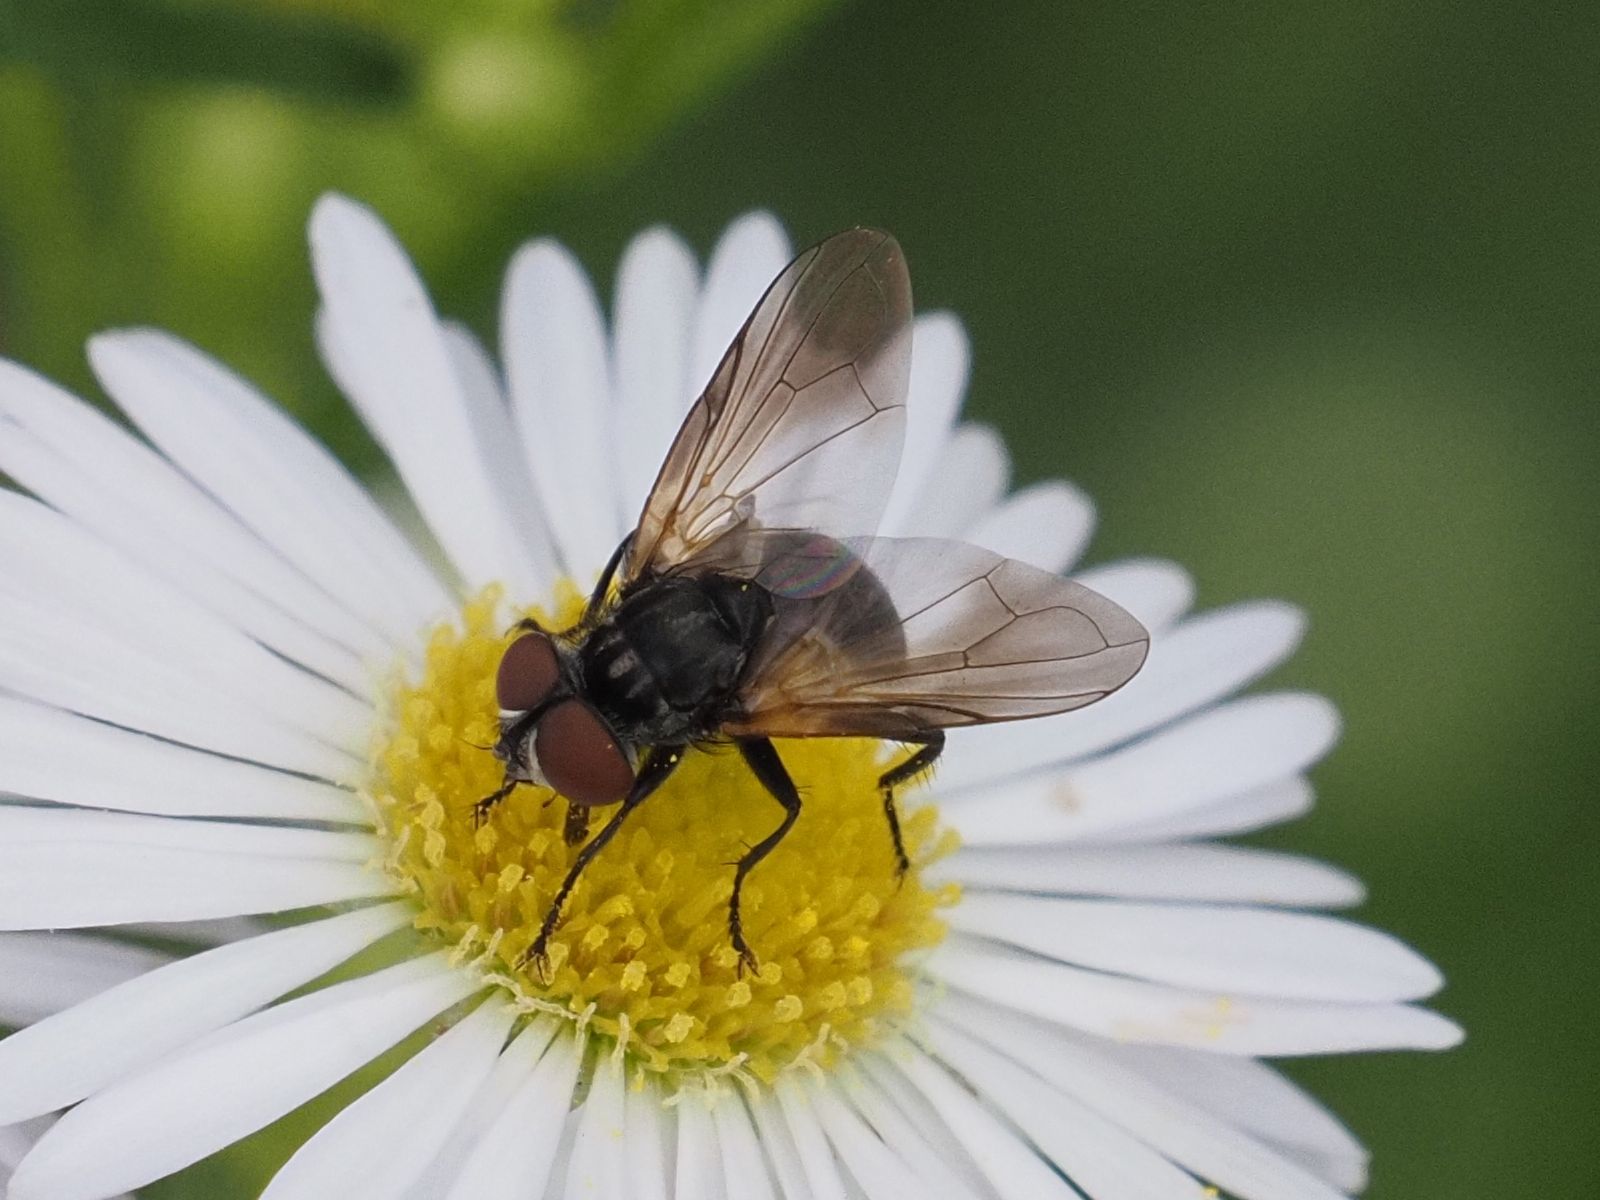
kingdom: Animalia
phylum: Arthropoda
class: Insecta
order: Diptera
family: Tachinidae
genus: Phasia
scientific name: Phasia obesa
